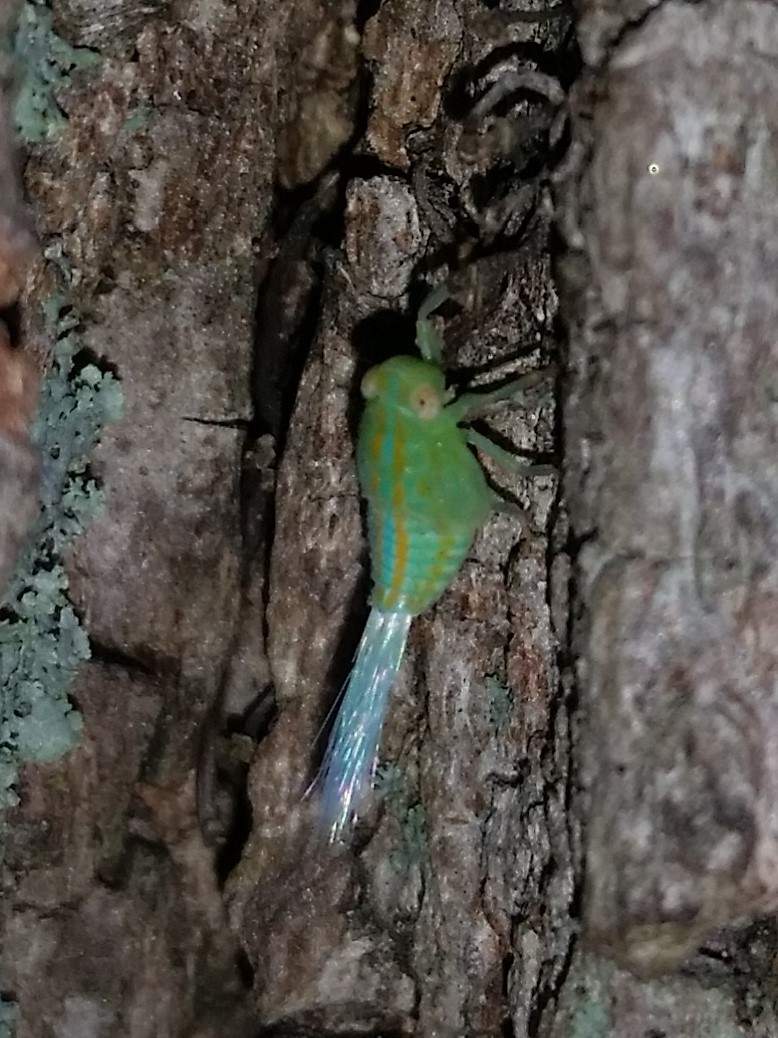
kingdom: Animalia
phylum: Arthropoda
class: Insecta
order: Hemiptera
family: Issidae
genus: Aplos
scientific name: Aplos simplex
